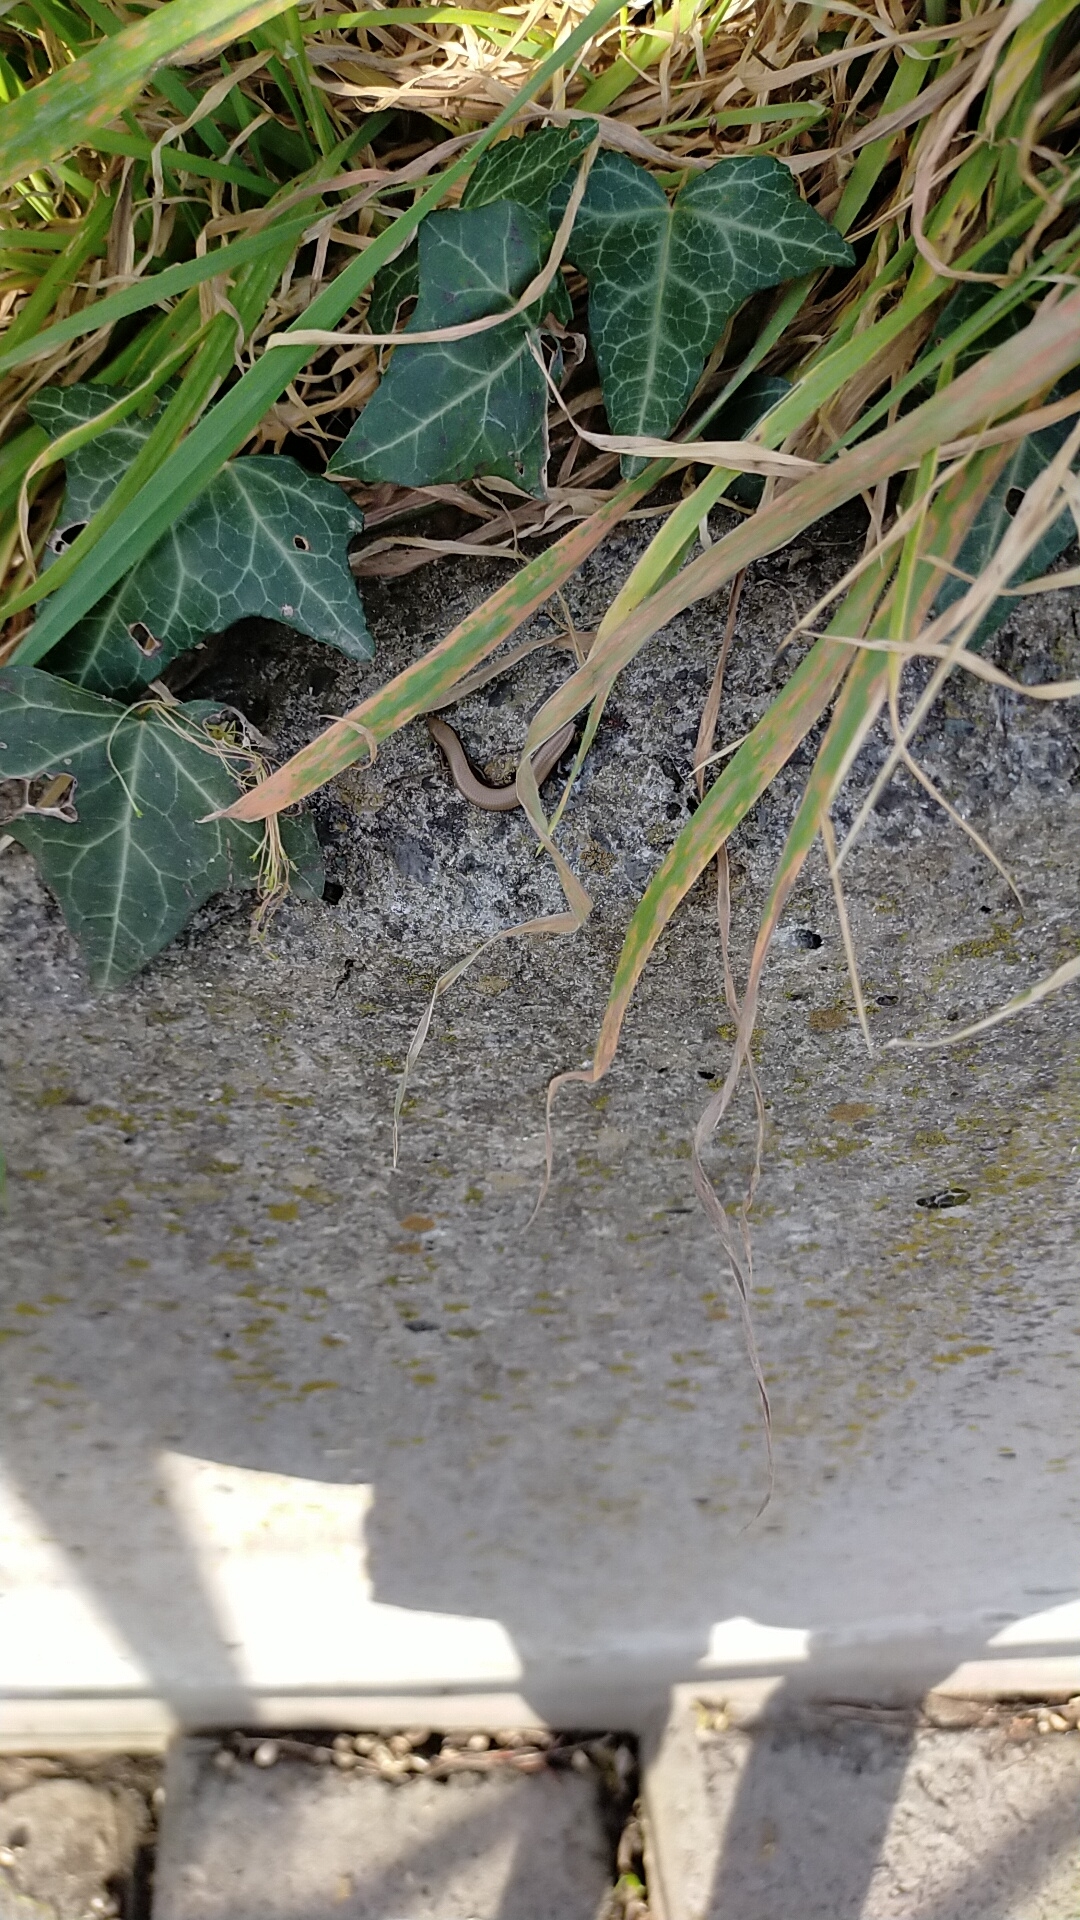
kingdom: Animalia
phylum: Chordata
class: Squamata
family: Scincidae
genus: Ablepharus
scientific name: Ablepharus kitaibelii
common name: Juniper skink
